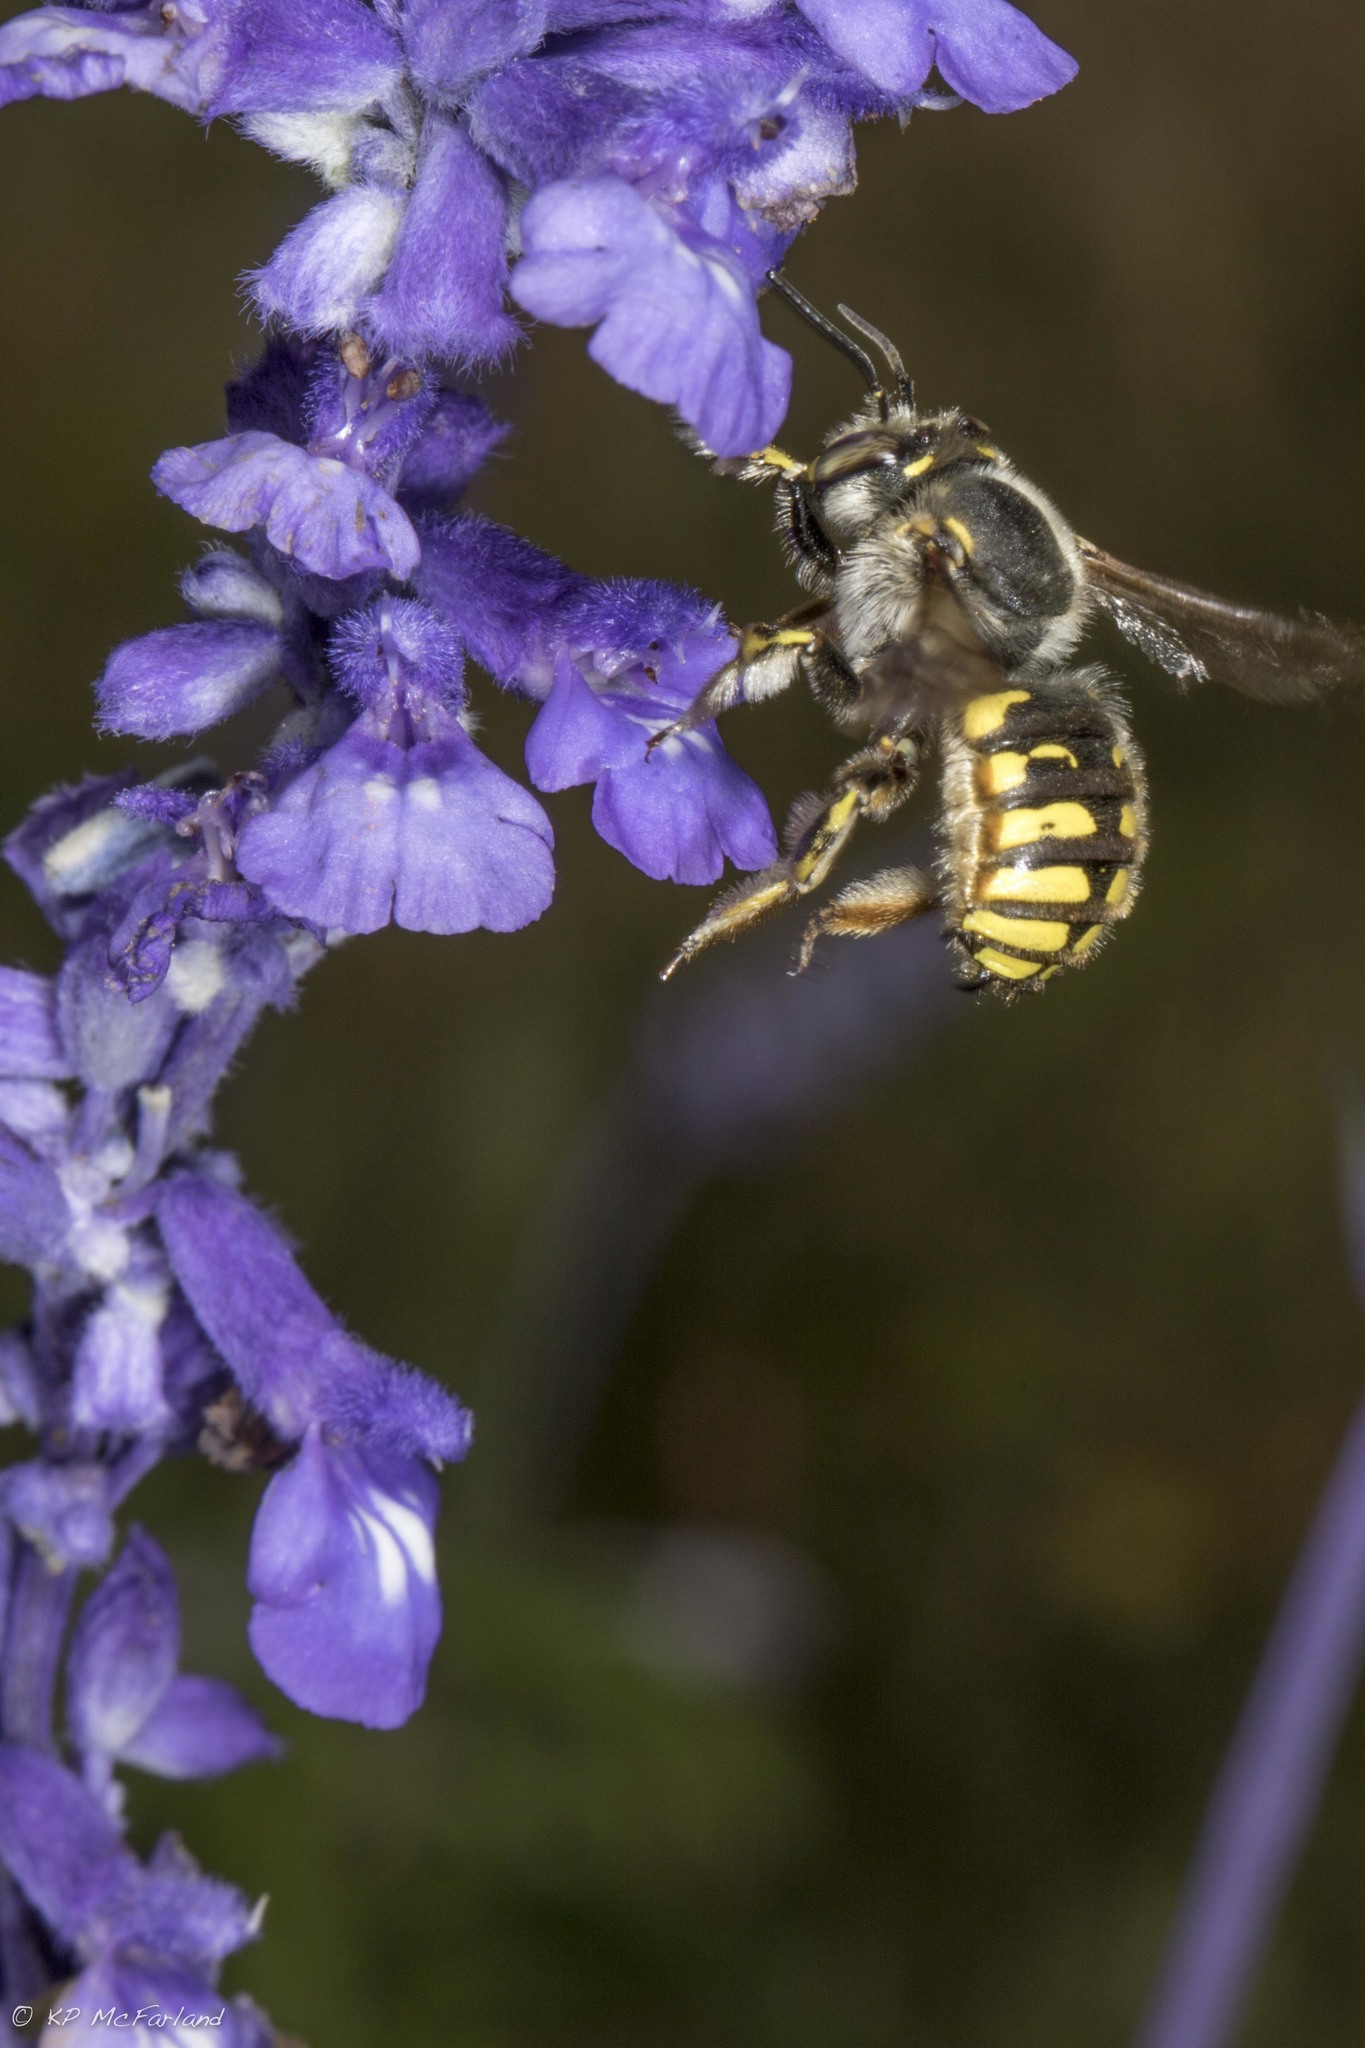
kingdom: Animalia
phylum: Arthropoda
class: Insecta
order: Hymenoptera
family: Megachilidae
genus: Anthidium
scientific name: Anthidium manicatum
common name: Wool carder bee
